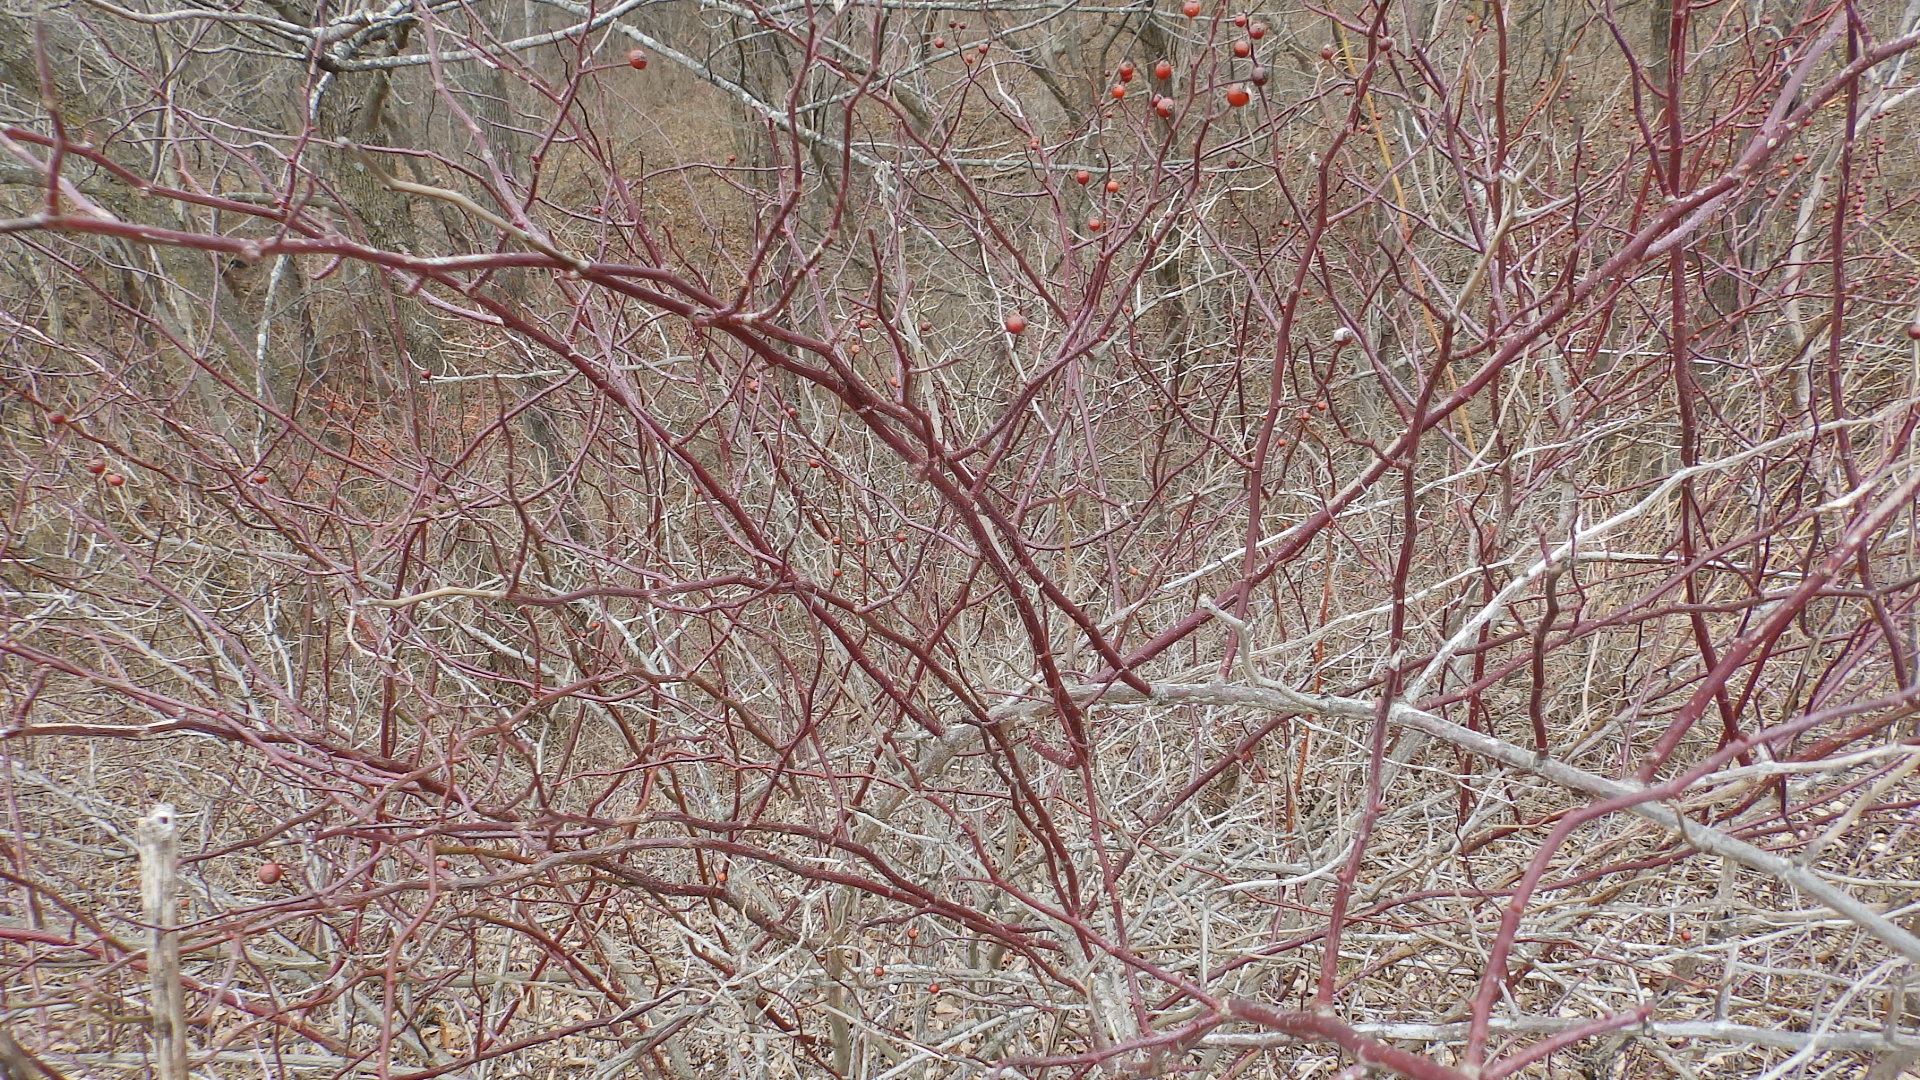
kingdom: Plantae
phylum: Tracheophyta
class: Magnoliopsida
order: Rosales
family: Rosaceae
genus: Rosa
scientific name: Rosa multiflora
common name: Multiflora rose
